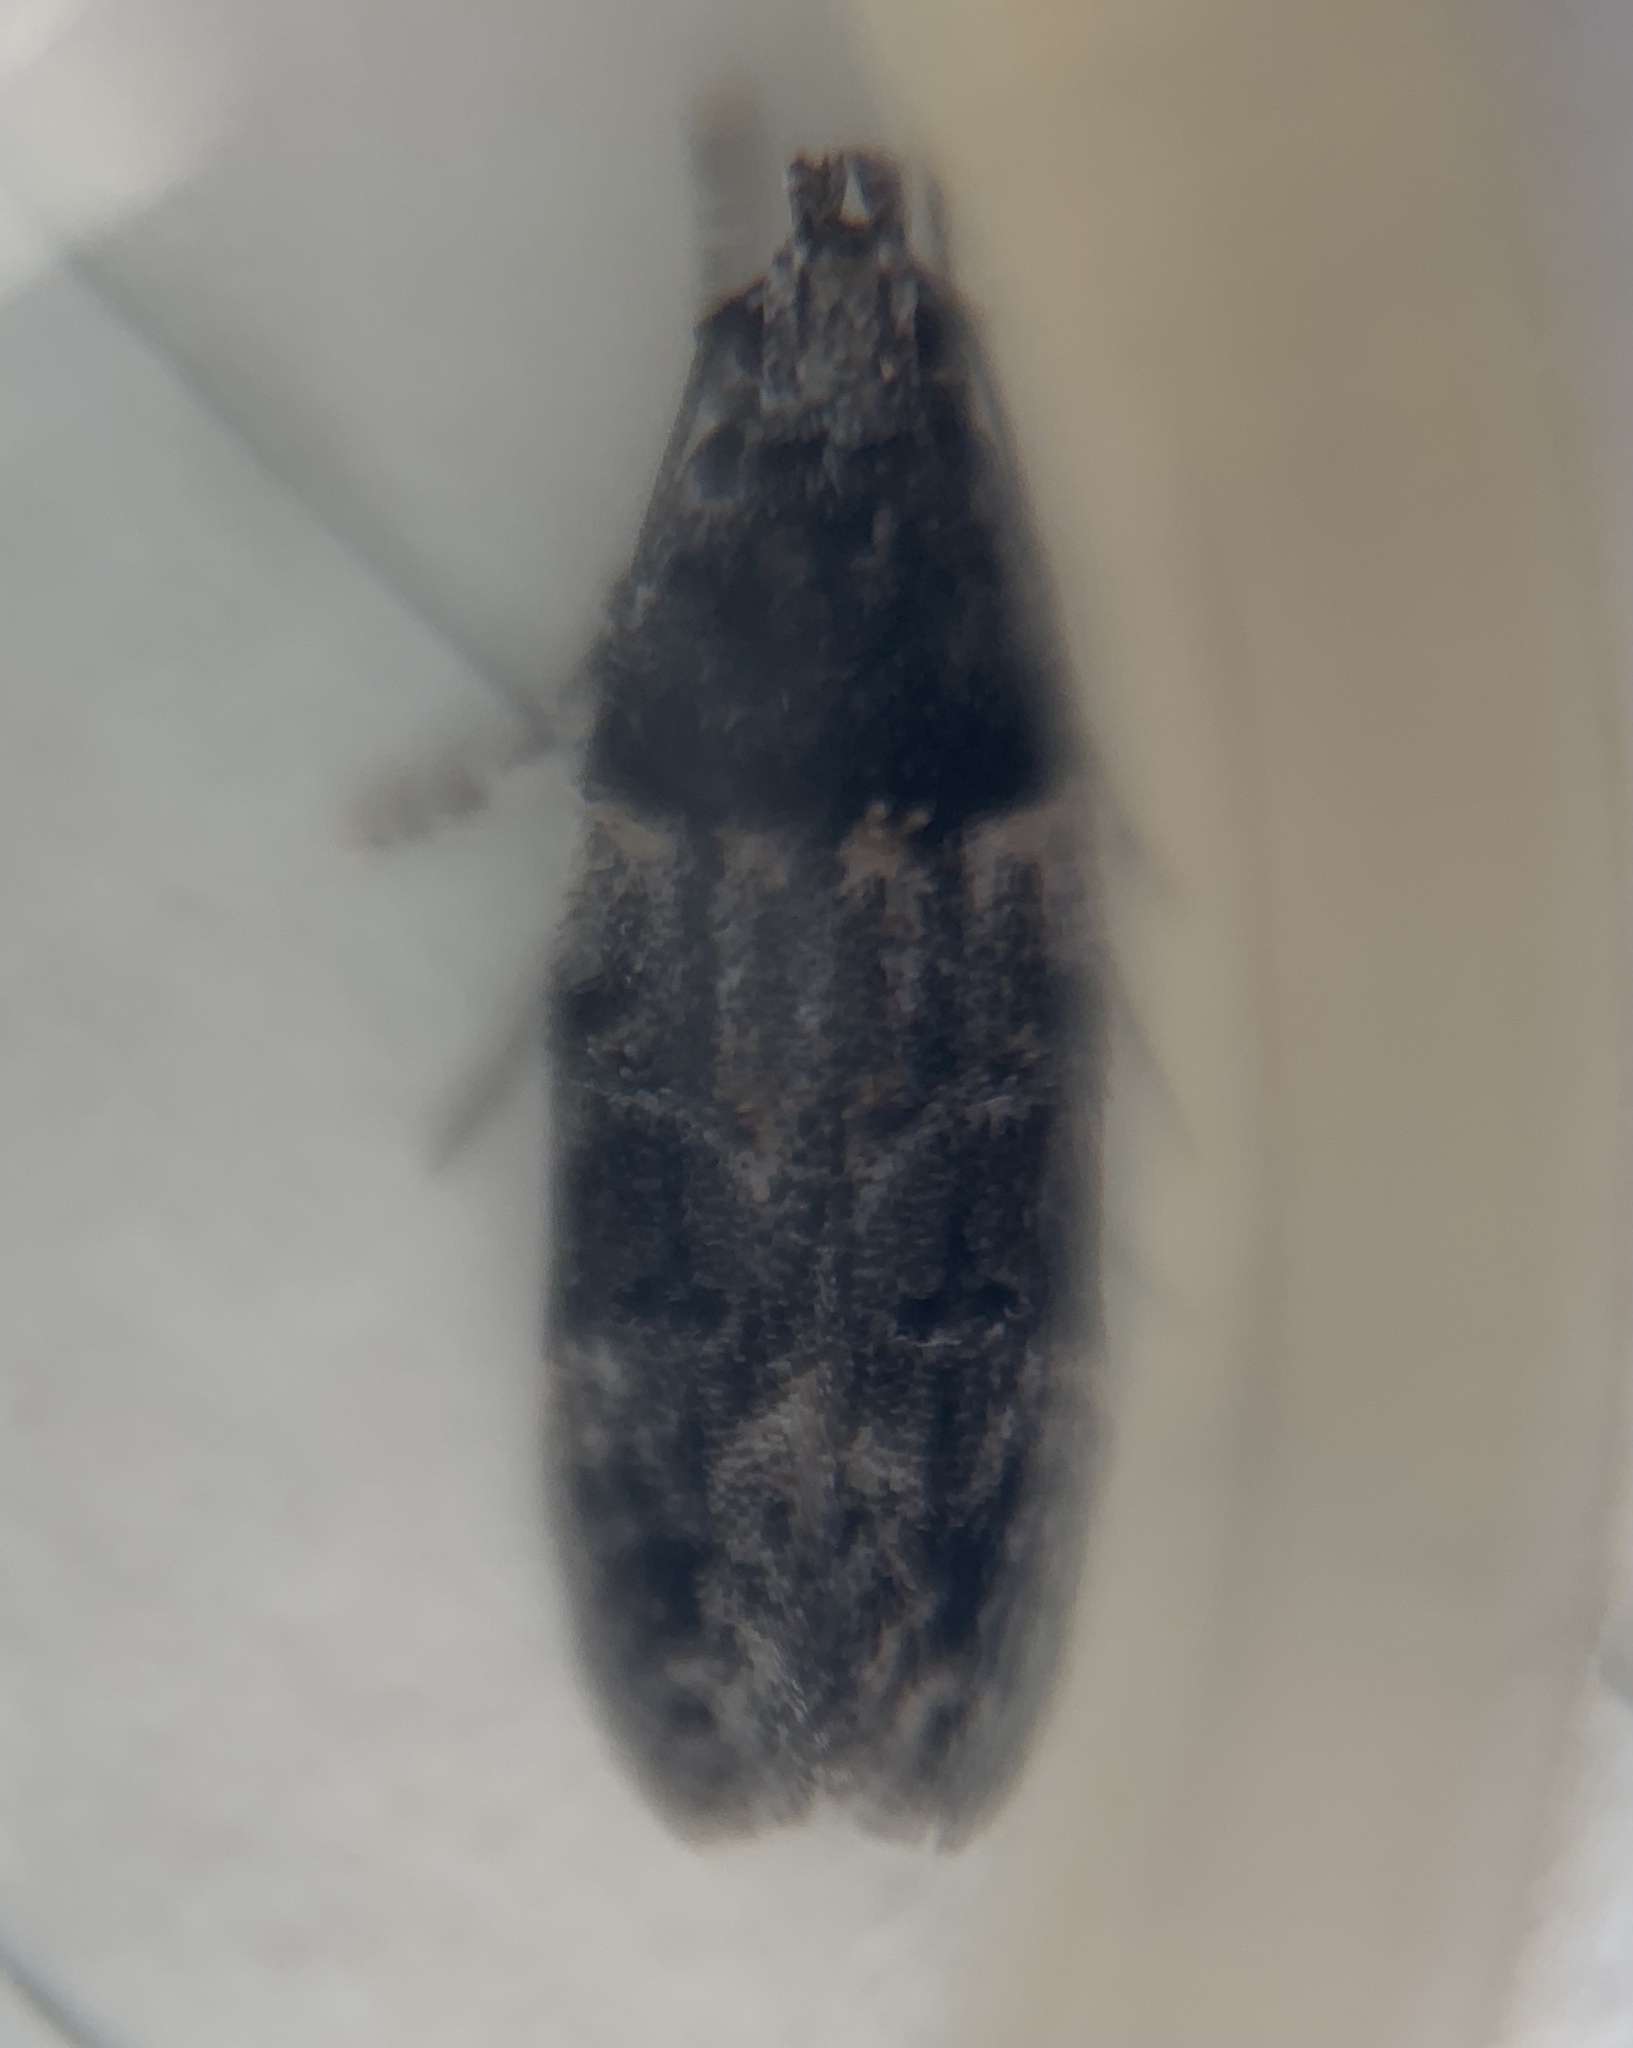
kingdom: Animalia
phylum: Arthropoda
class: Insecta
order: Lepidoptera
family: Gelechiidae
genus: Pubitelphusa
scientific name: Pubitelphusa latifasciella
